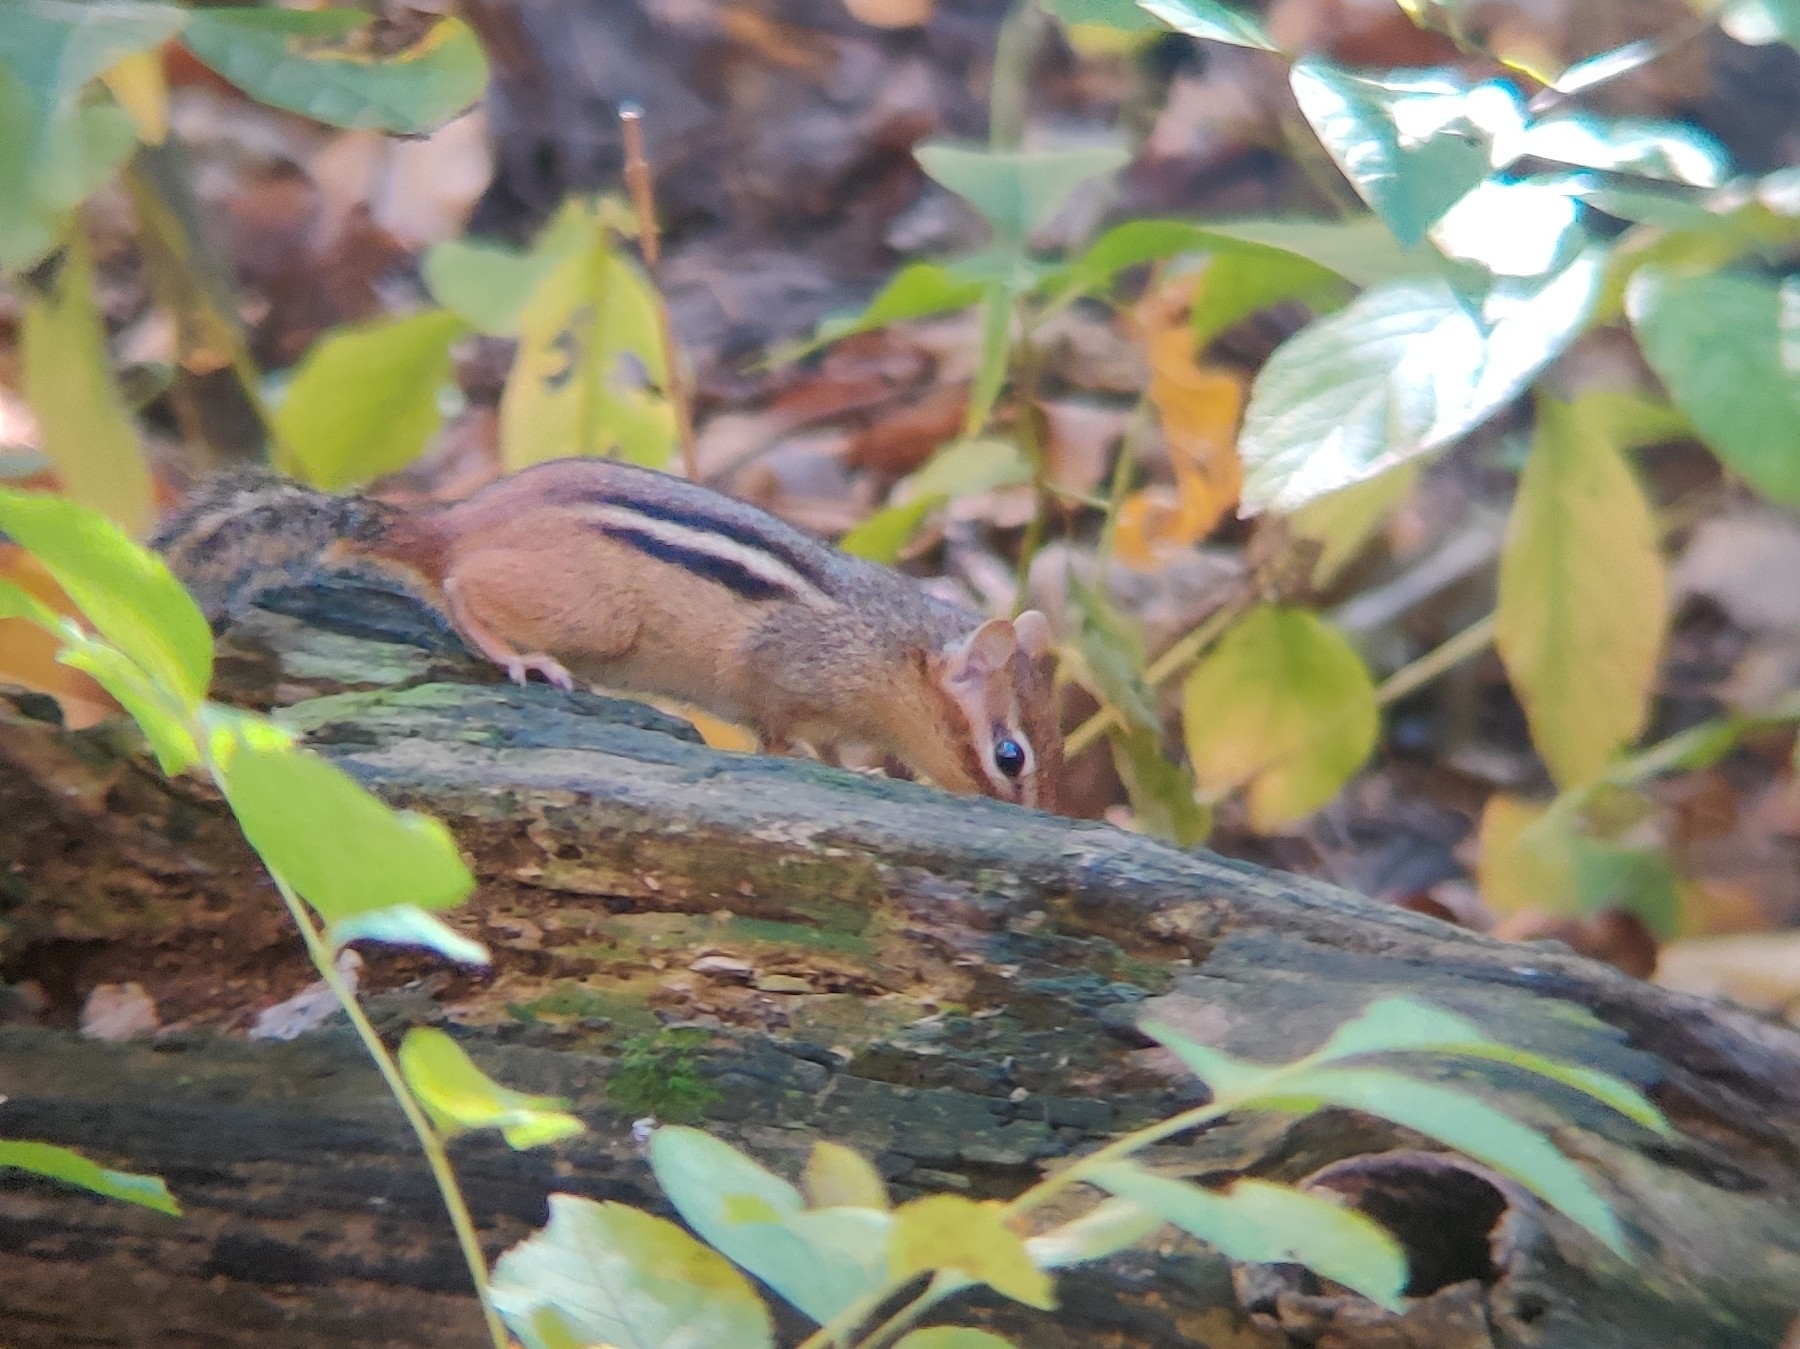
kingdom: Animalia
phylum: Chordata
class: Mammalia
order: Rodentia
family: Sciuridae
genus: Tamias
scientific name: Tamias striatus
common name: Eastern chipmunk
